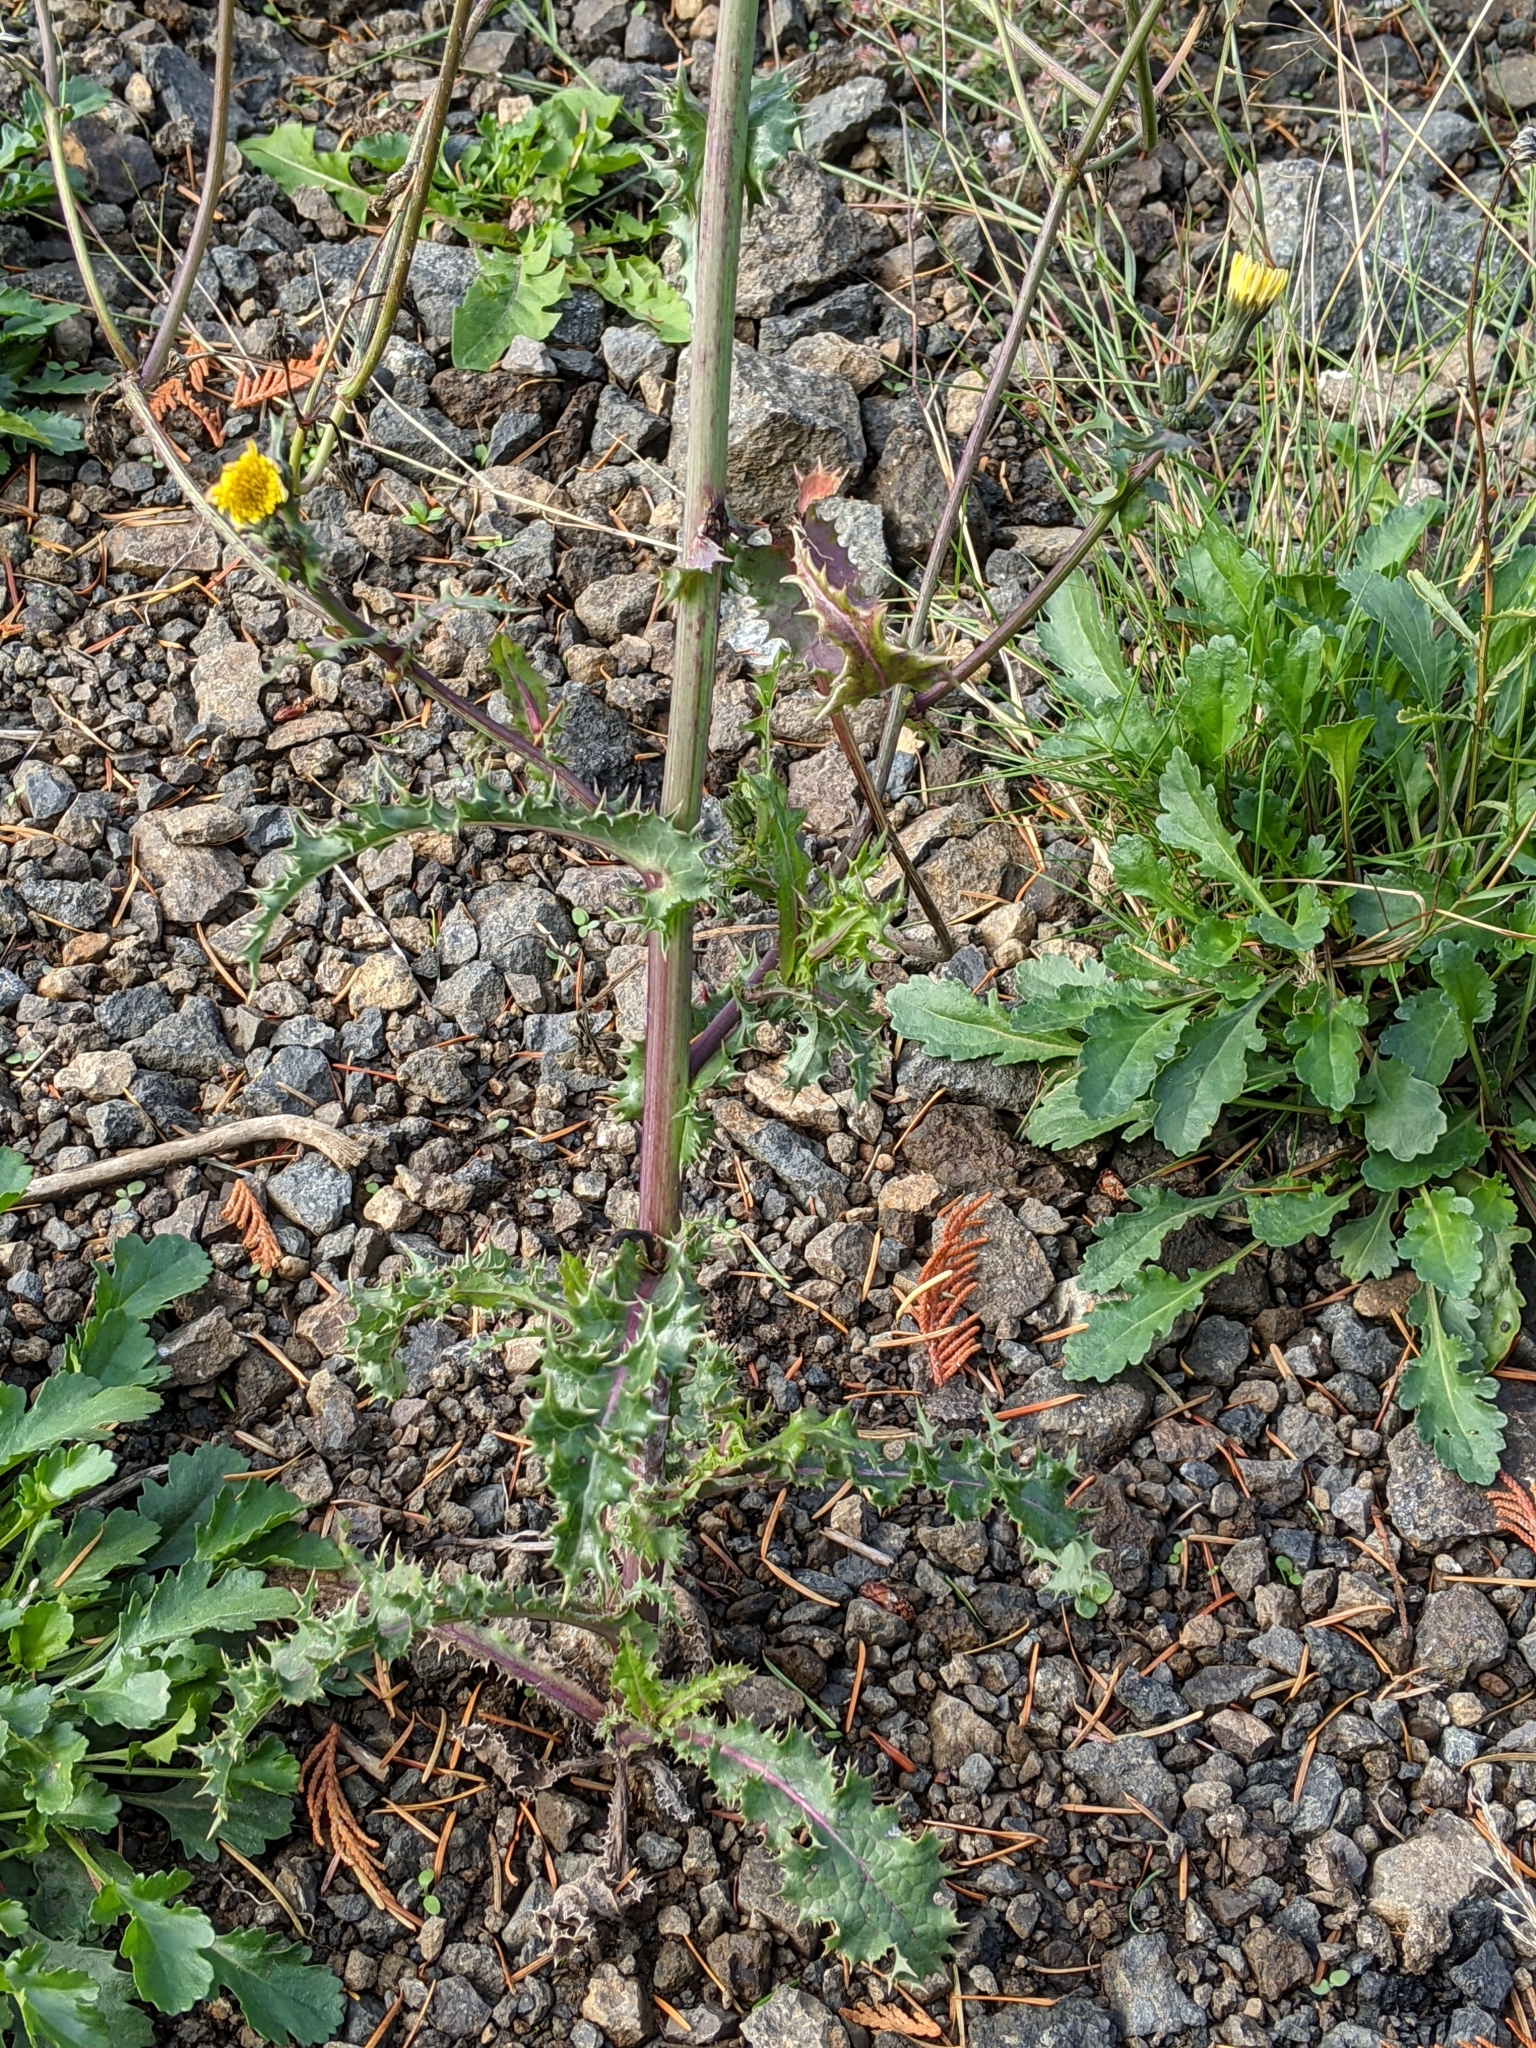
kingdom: Plantae
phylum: Tracheophyta
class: Magnoliopsida
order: Asterales
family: Asteraceae
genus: Sonchus
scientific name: Sonchus asper
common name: Prickly sow-thistle
